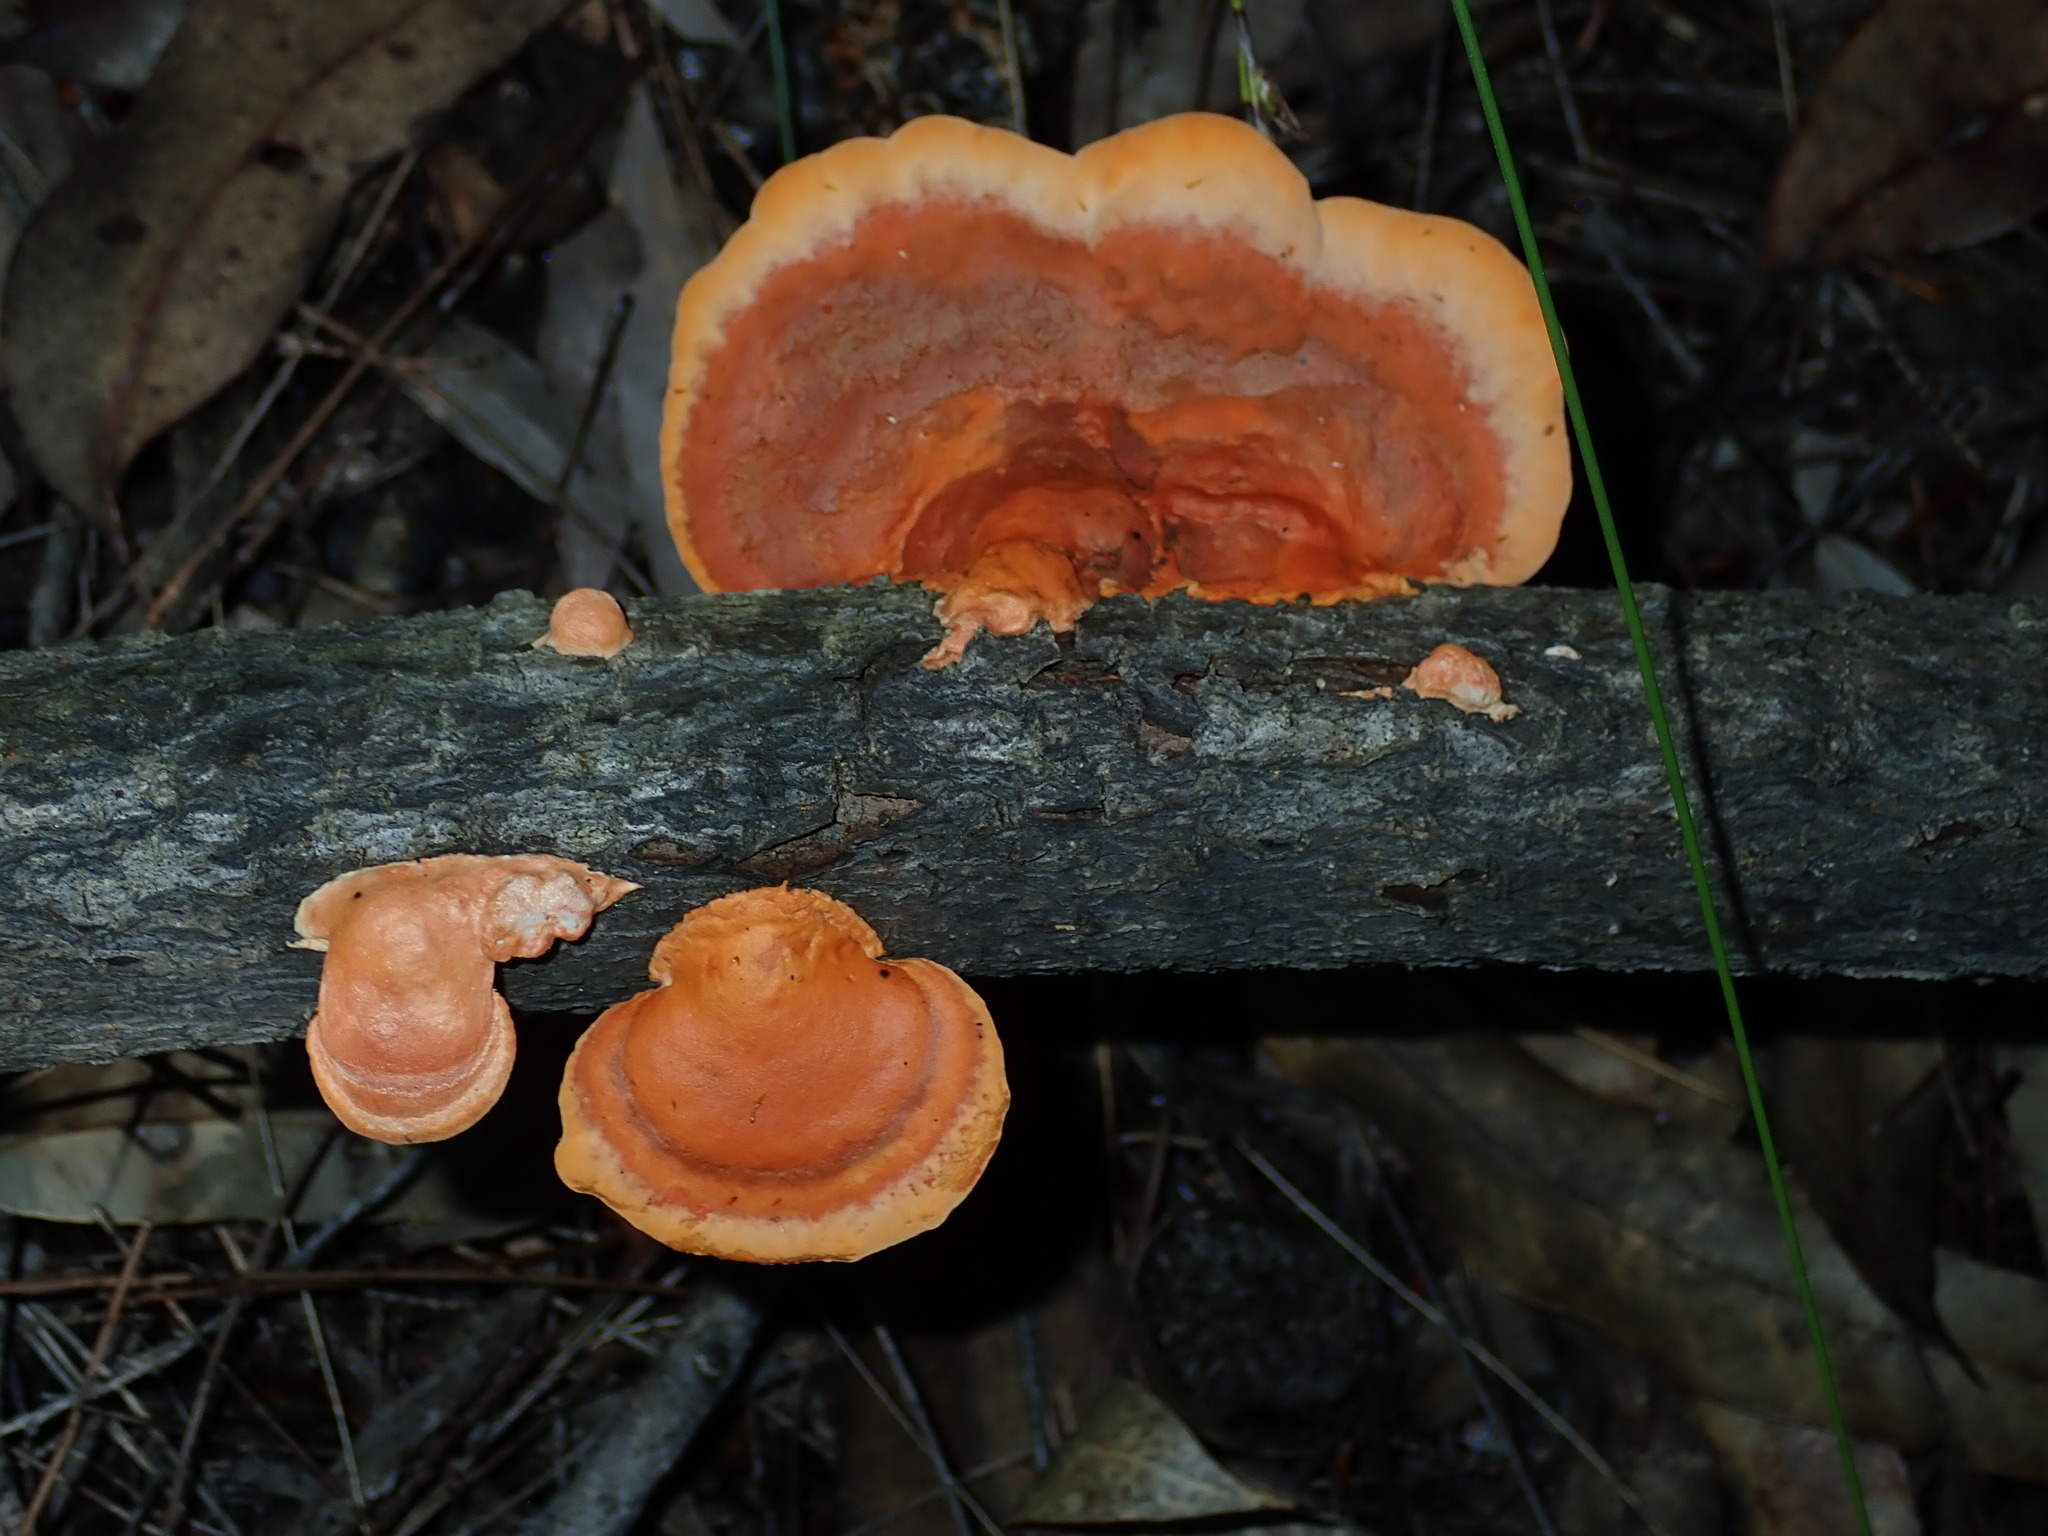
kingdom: Fungi
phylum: Basidiomycota
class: Agaricomycetes
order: Polyporales
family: Polyporaceae
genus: Trametes
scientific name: Trametes coccinea
